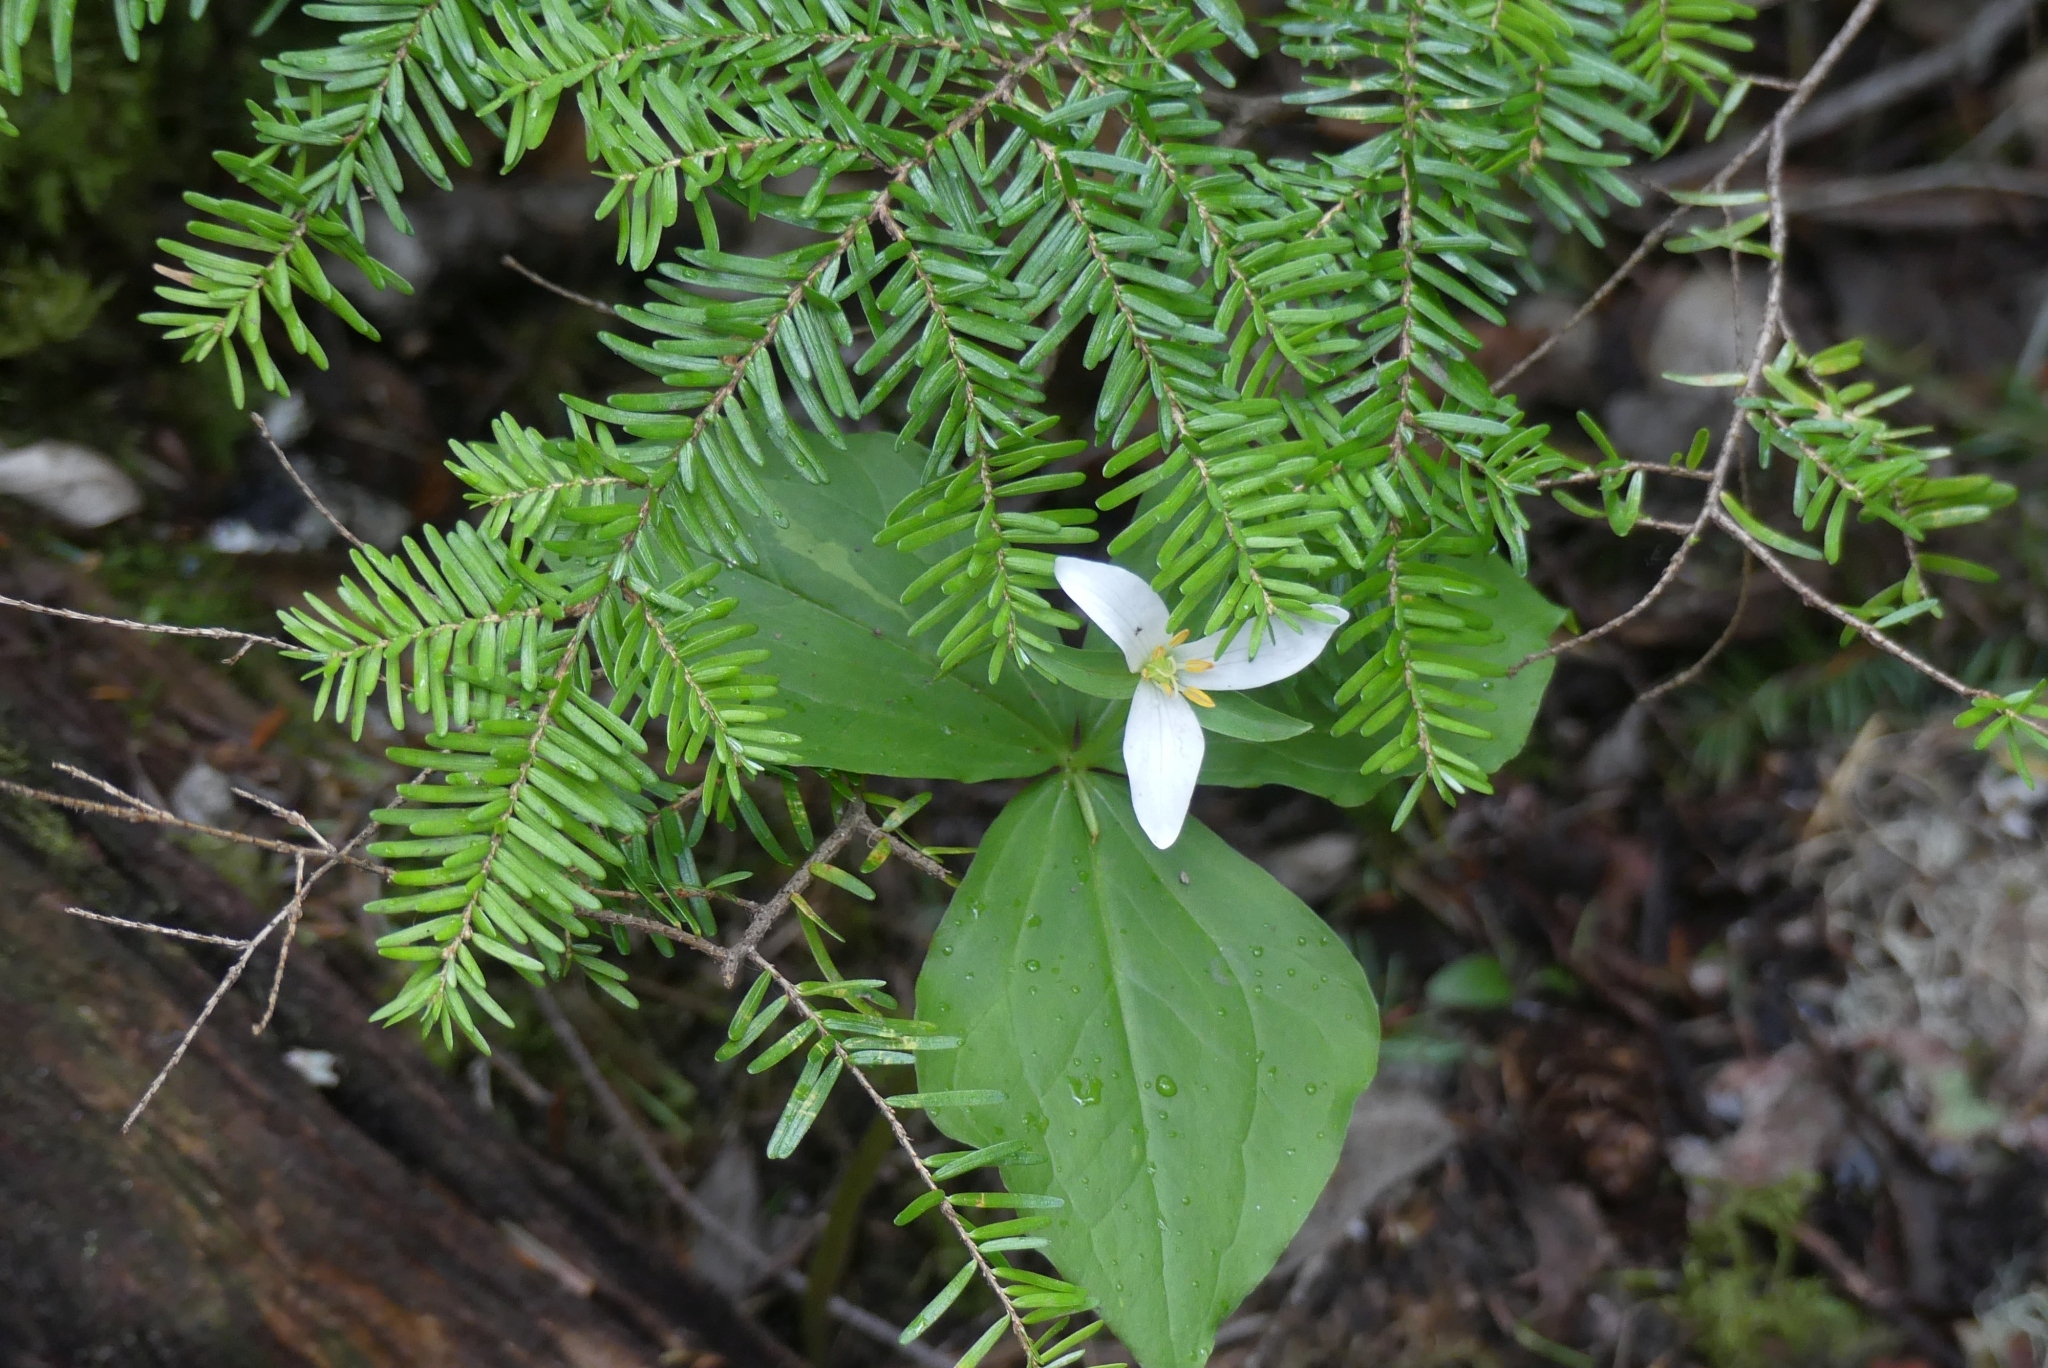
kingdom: Plantae
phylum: Tracheophyta
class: Liliopsida
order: Liliales
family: Melanthiaceae
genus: Trillium
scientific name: Trillium ovatum
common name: Pacific trillium
